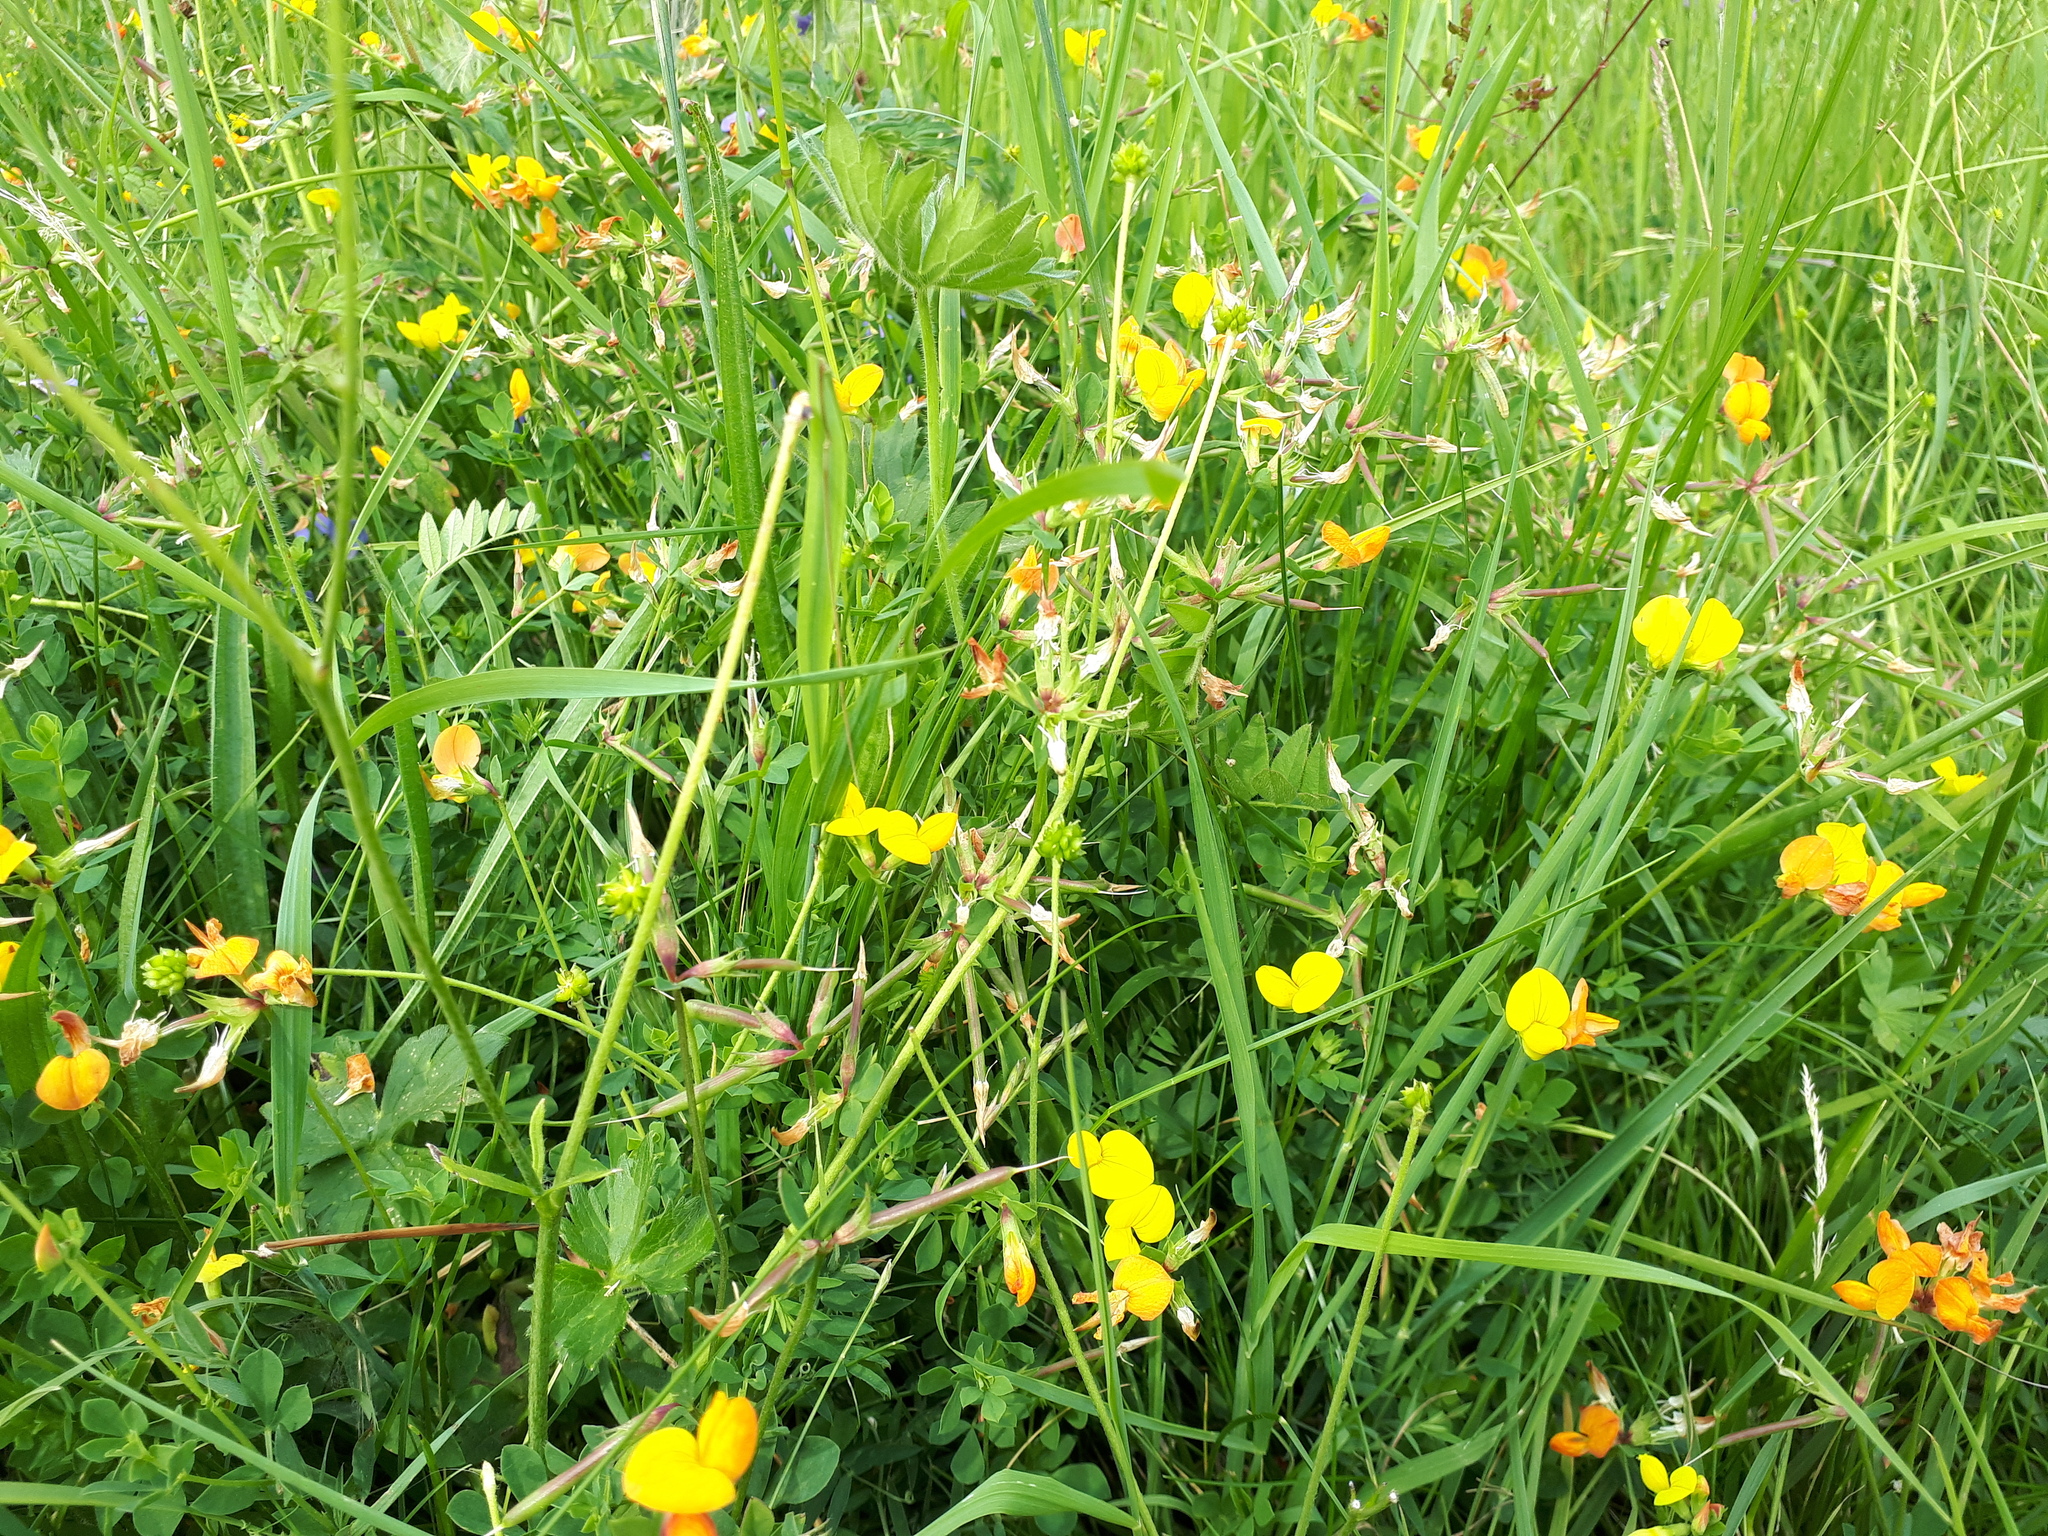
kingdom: Plantae
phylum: Tracheophyta
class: Magnoliopsida
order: Fabales
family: Fabaceae
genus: Lotus
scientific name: Lotus corniculatus
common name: Common bird's-foot-trefoil
